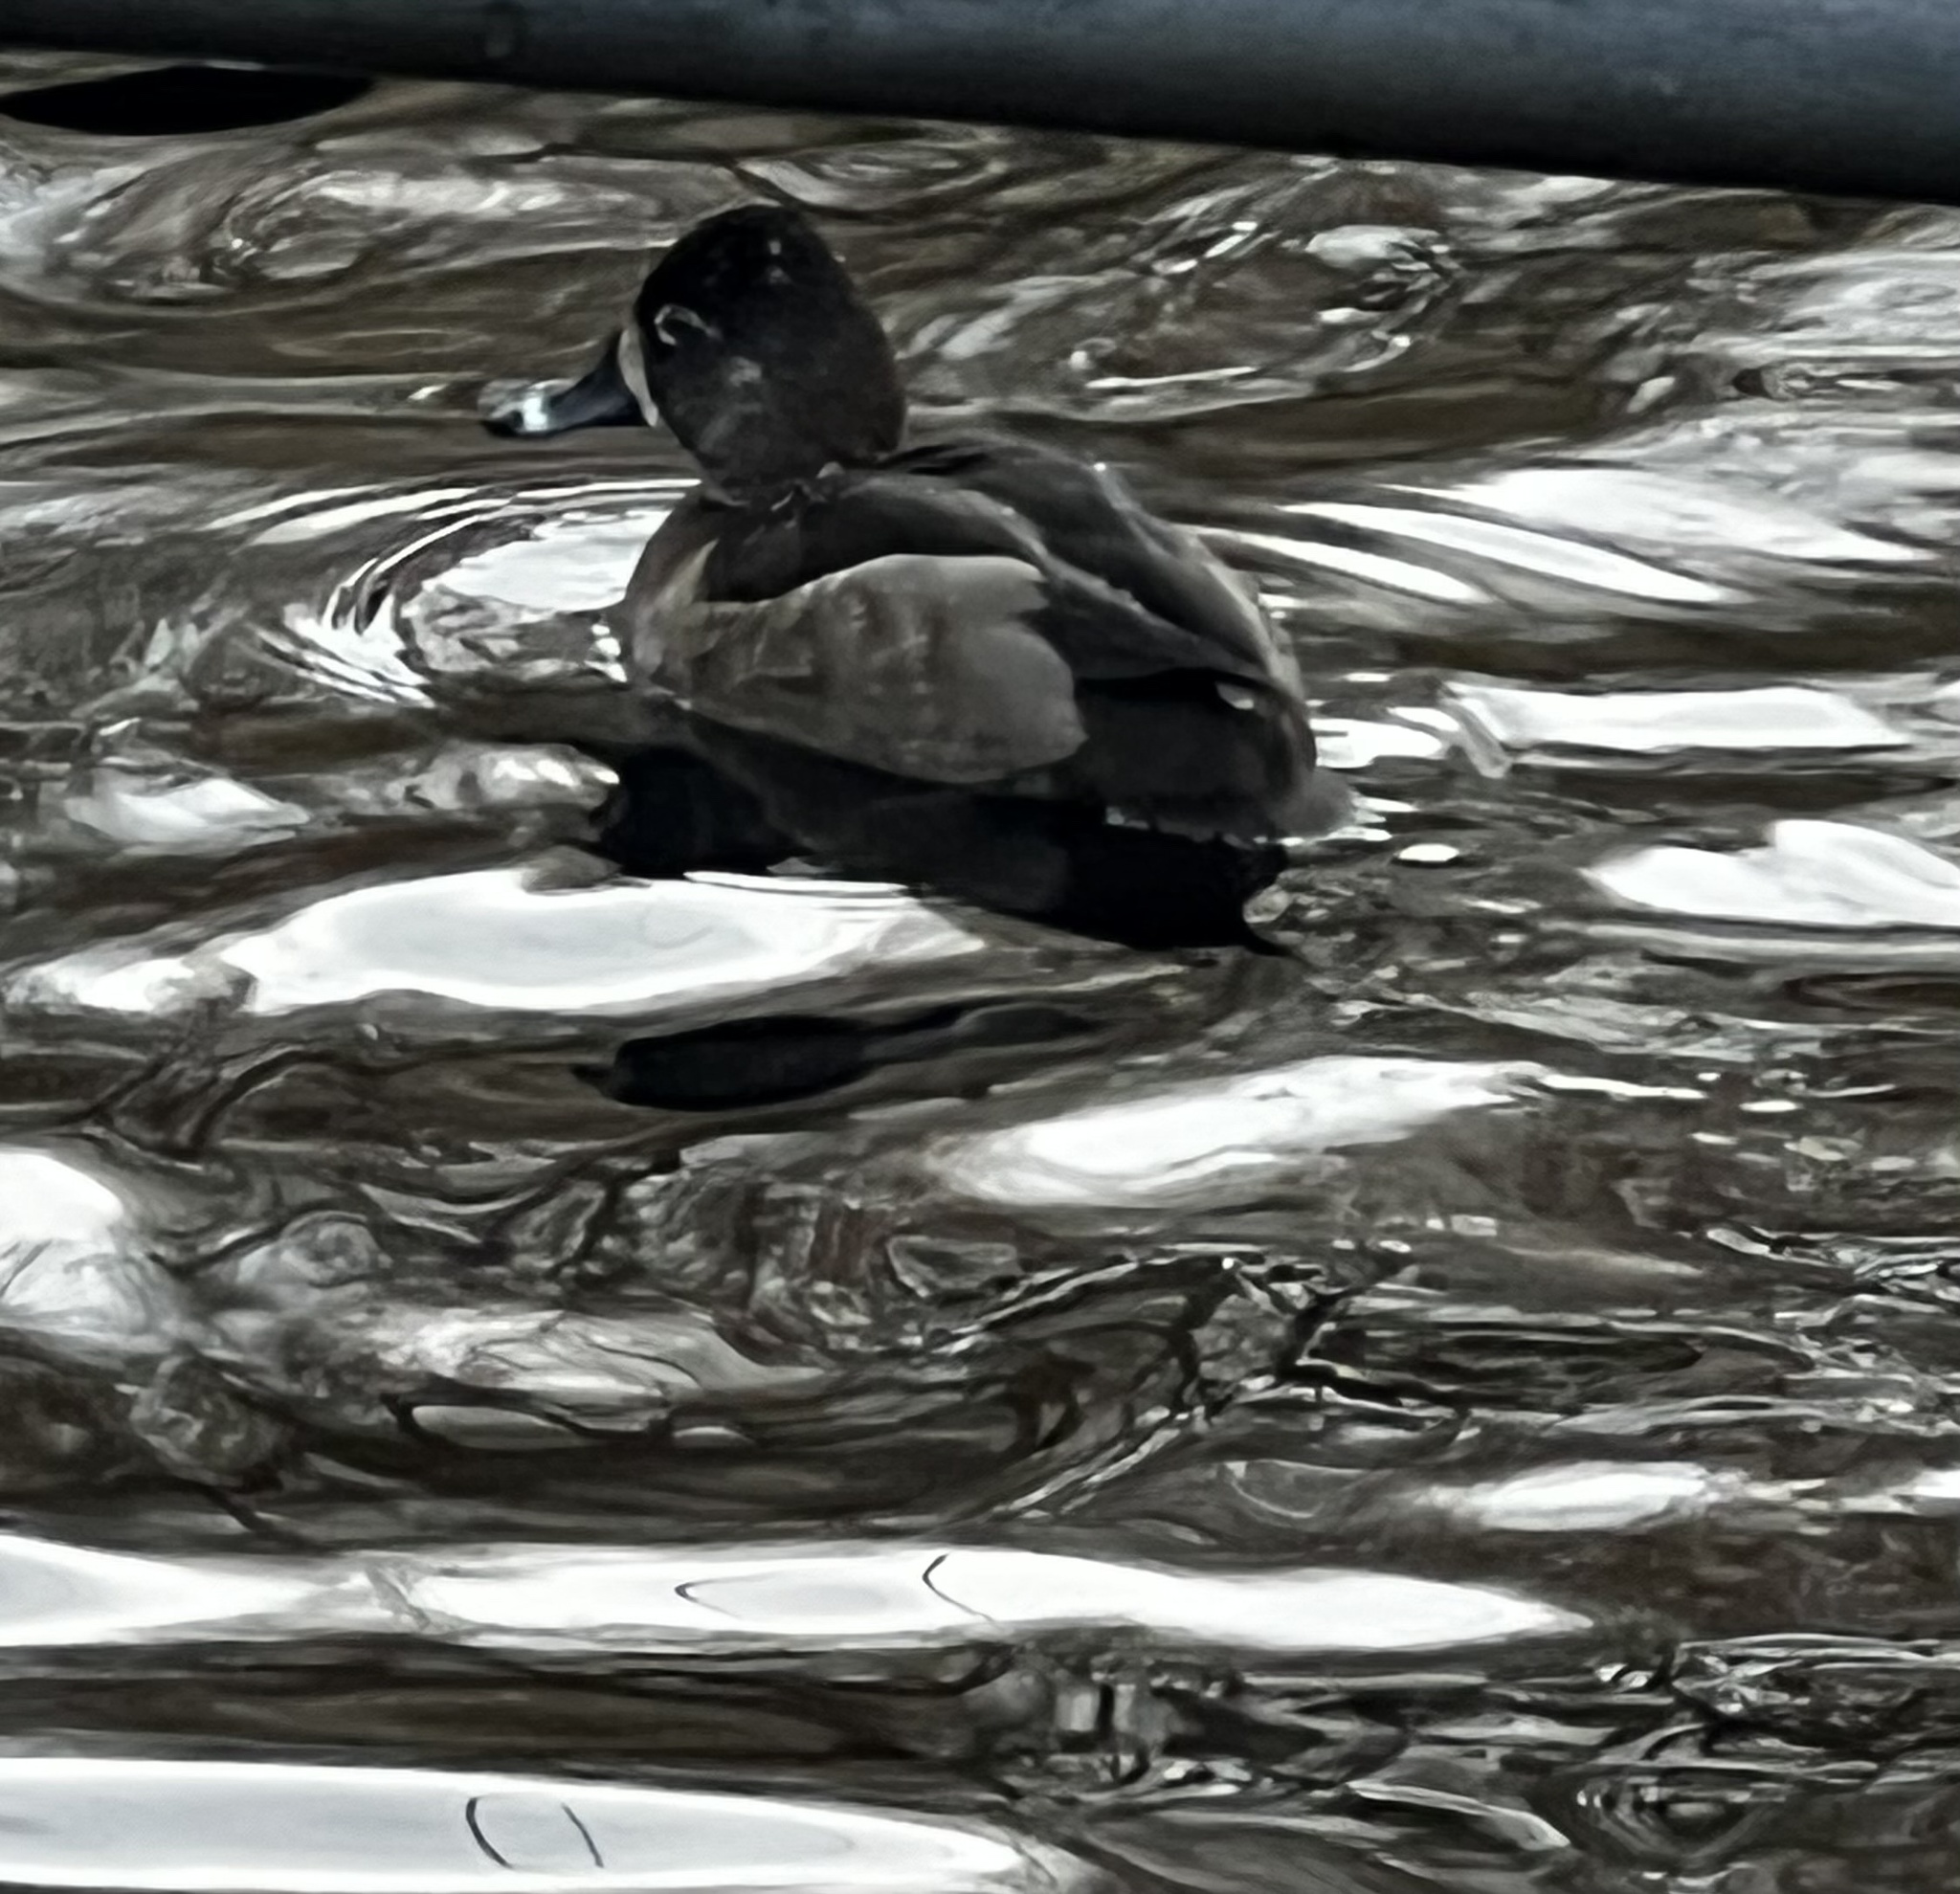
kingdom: Animalia
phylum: Chordata
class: Aves
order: Anseriformes
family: Anatidae
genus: Aythya
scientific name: Aythya collaris
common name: Ring-necked duck
